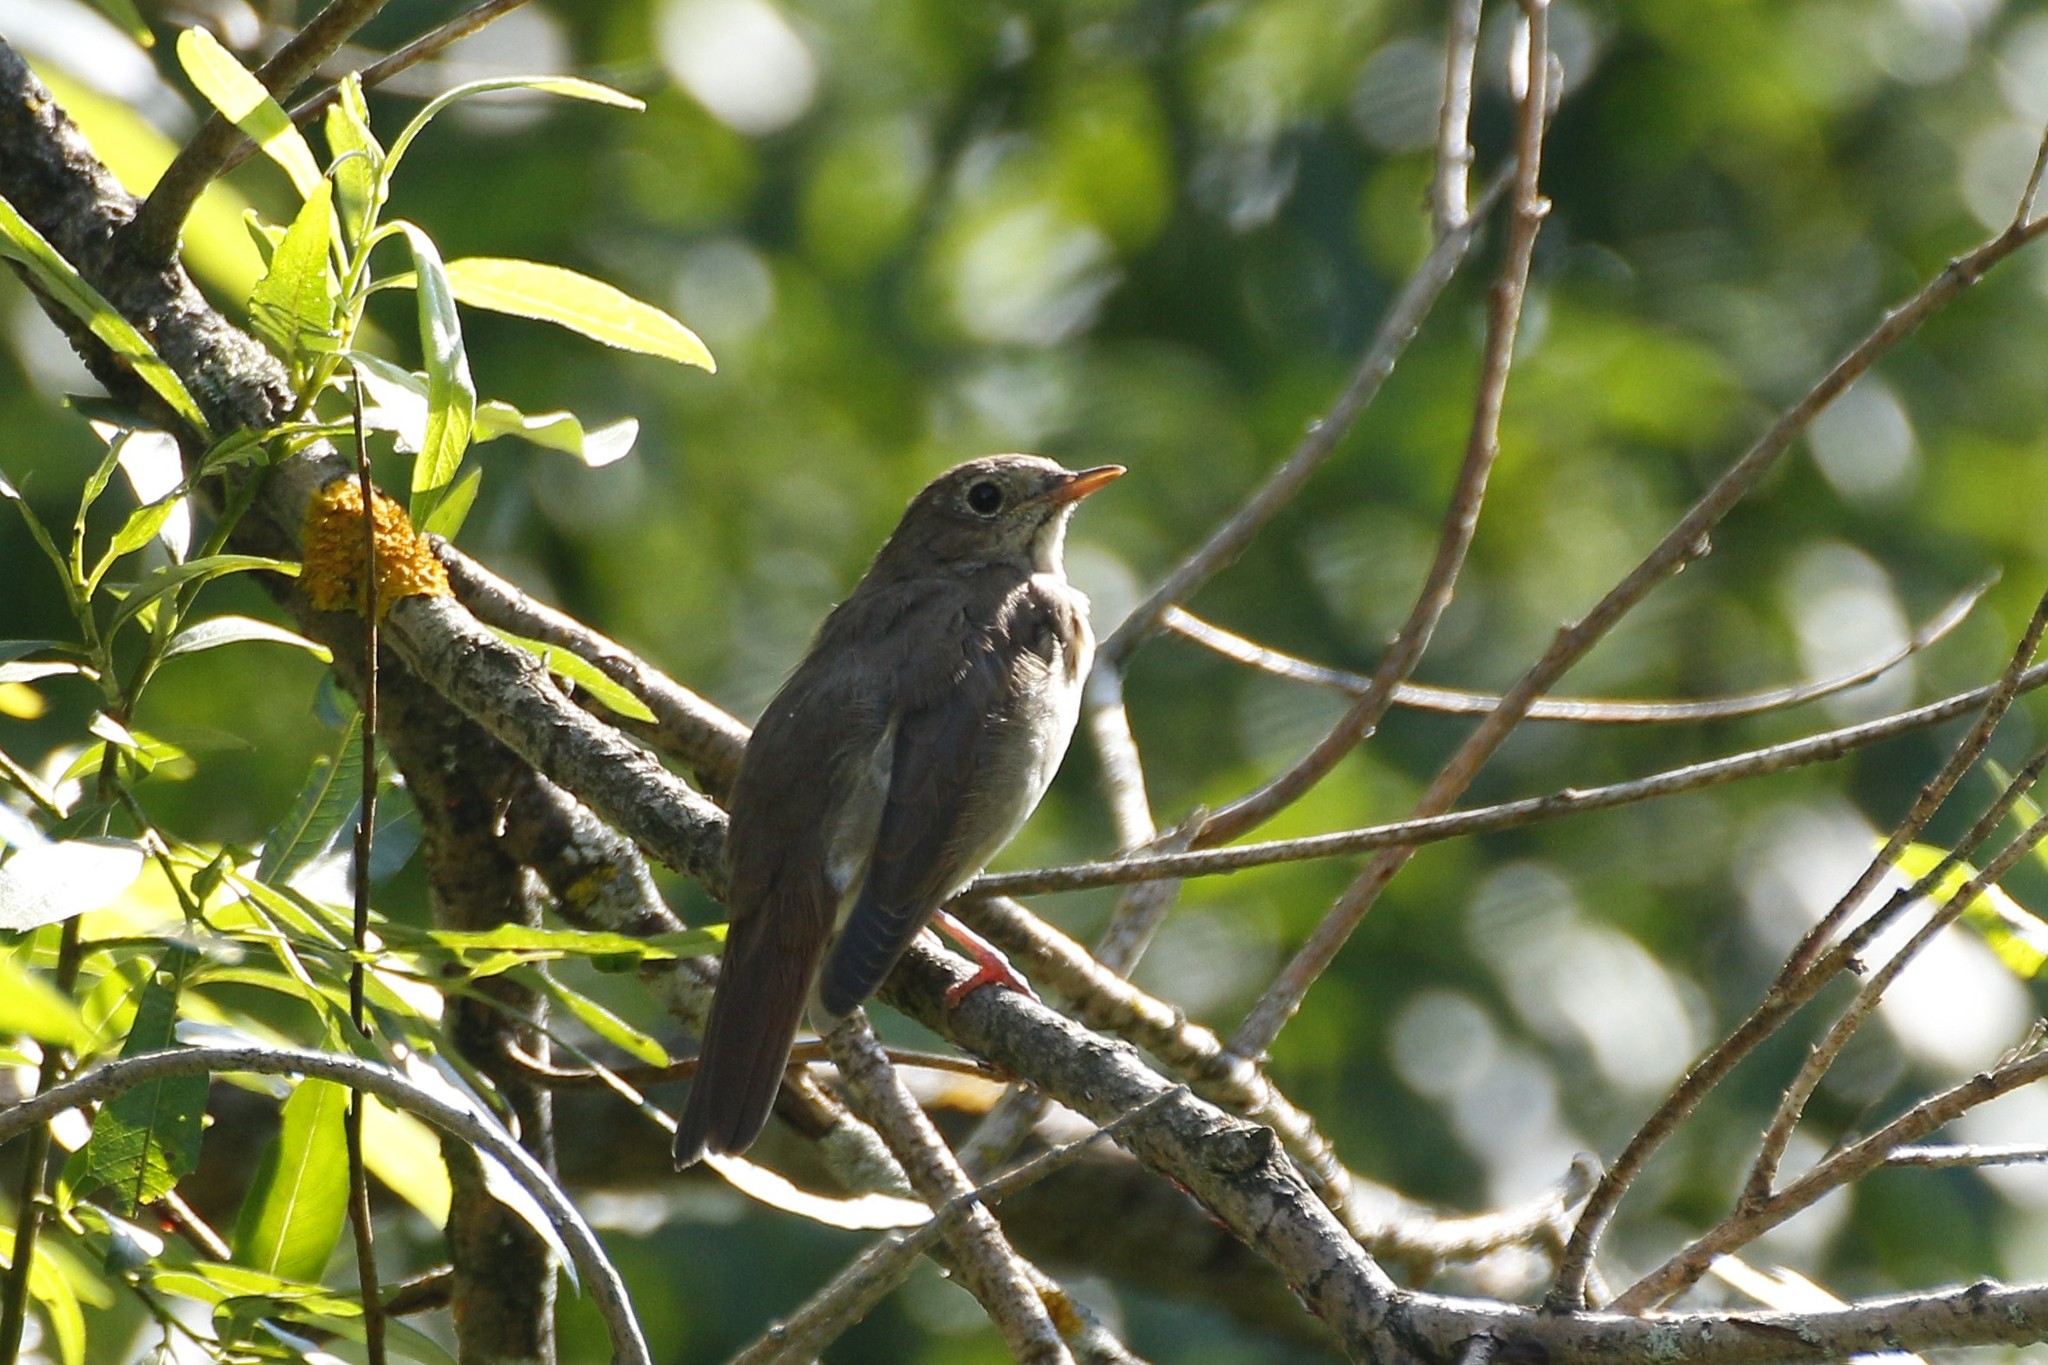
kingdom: Animalia
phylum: Chordata
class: Aves
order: Passeriformes
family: Muscicapidae
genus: Luscinia
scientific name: Luscinia luscinia
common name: Thrush nightingale
